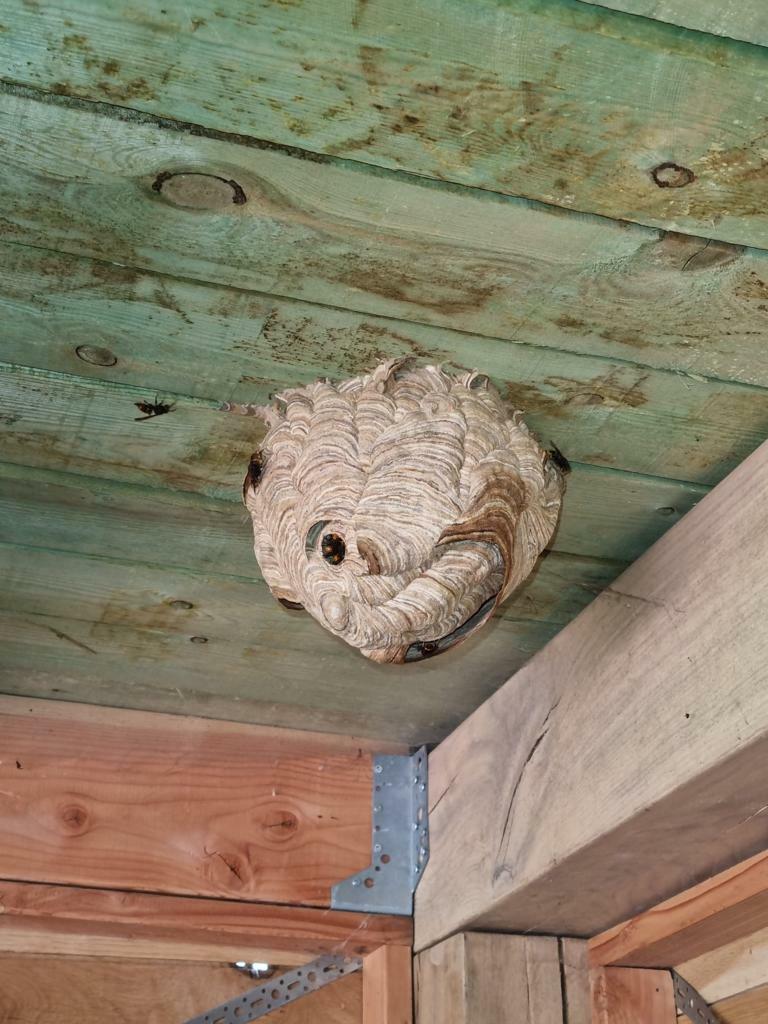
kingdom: Animalia
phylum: Arthropoda
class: Insecta
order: Hymenoptera
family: Vespidae
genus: Vespa
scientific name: Vespa velutina
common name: Asian hornet
